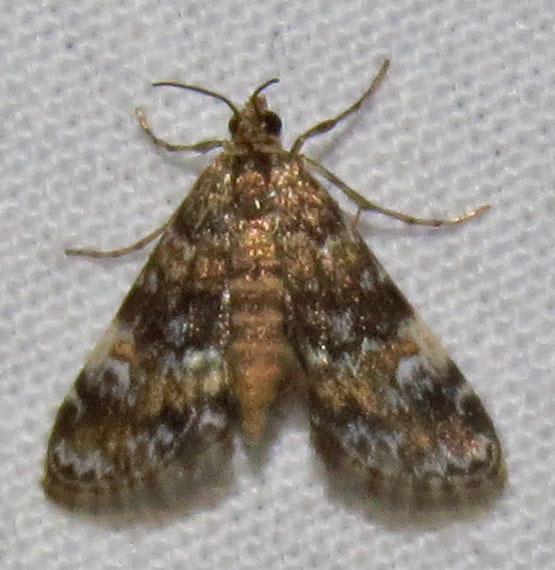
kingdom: Animalia
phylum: Arthropoda
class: Insecta
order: Lepidoptera
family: Crambidae
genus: Elophila
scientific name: Elophila obliteralis
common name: Waterlily leafcutter moth
